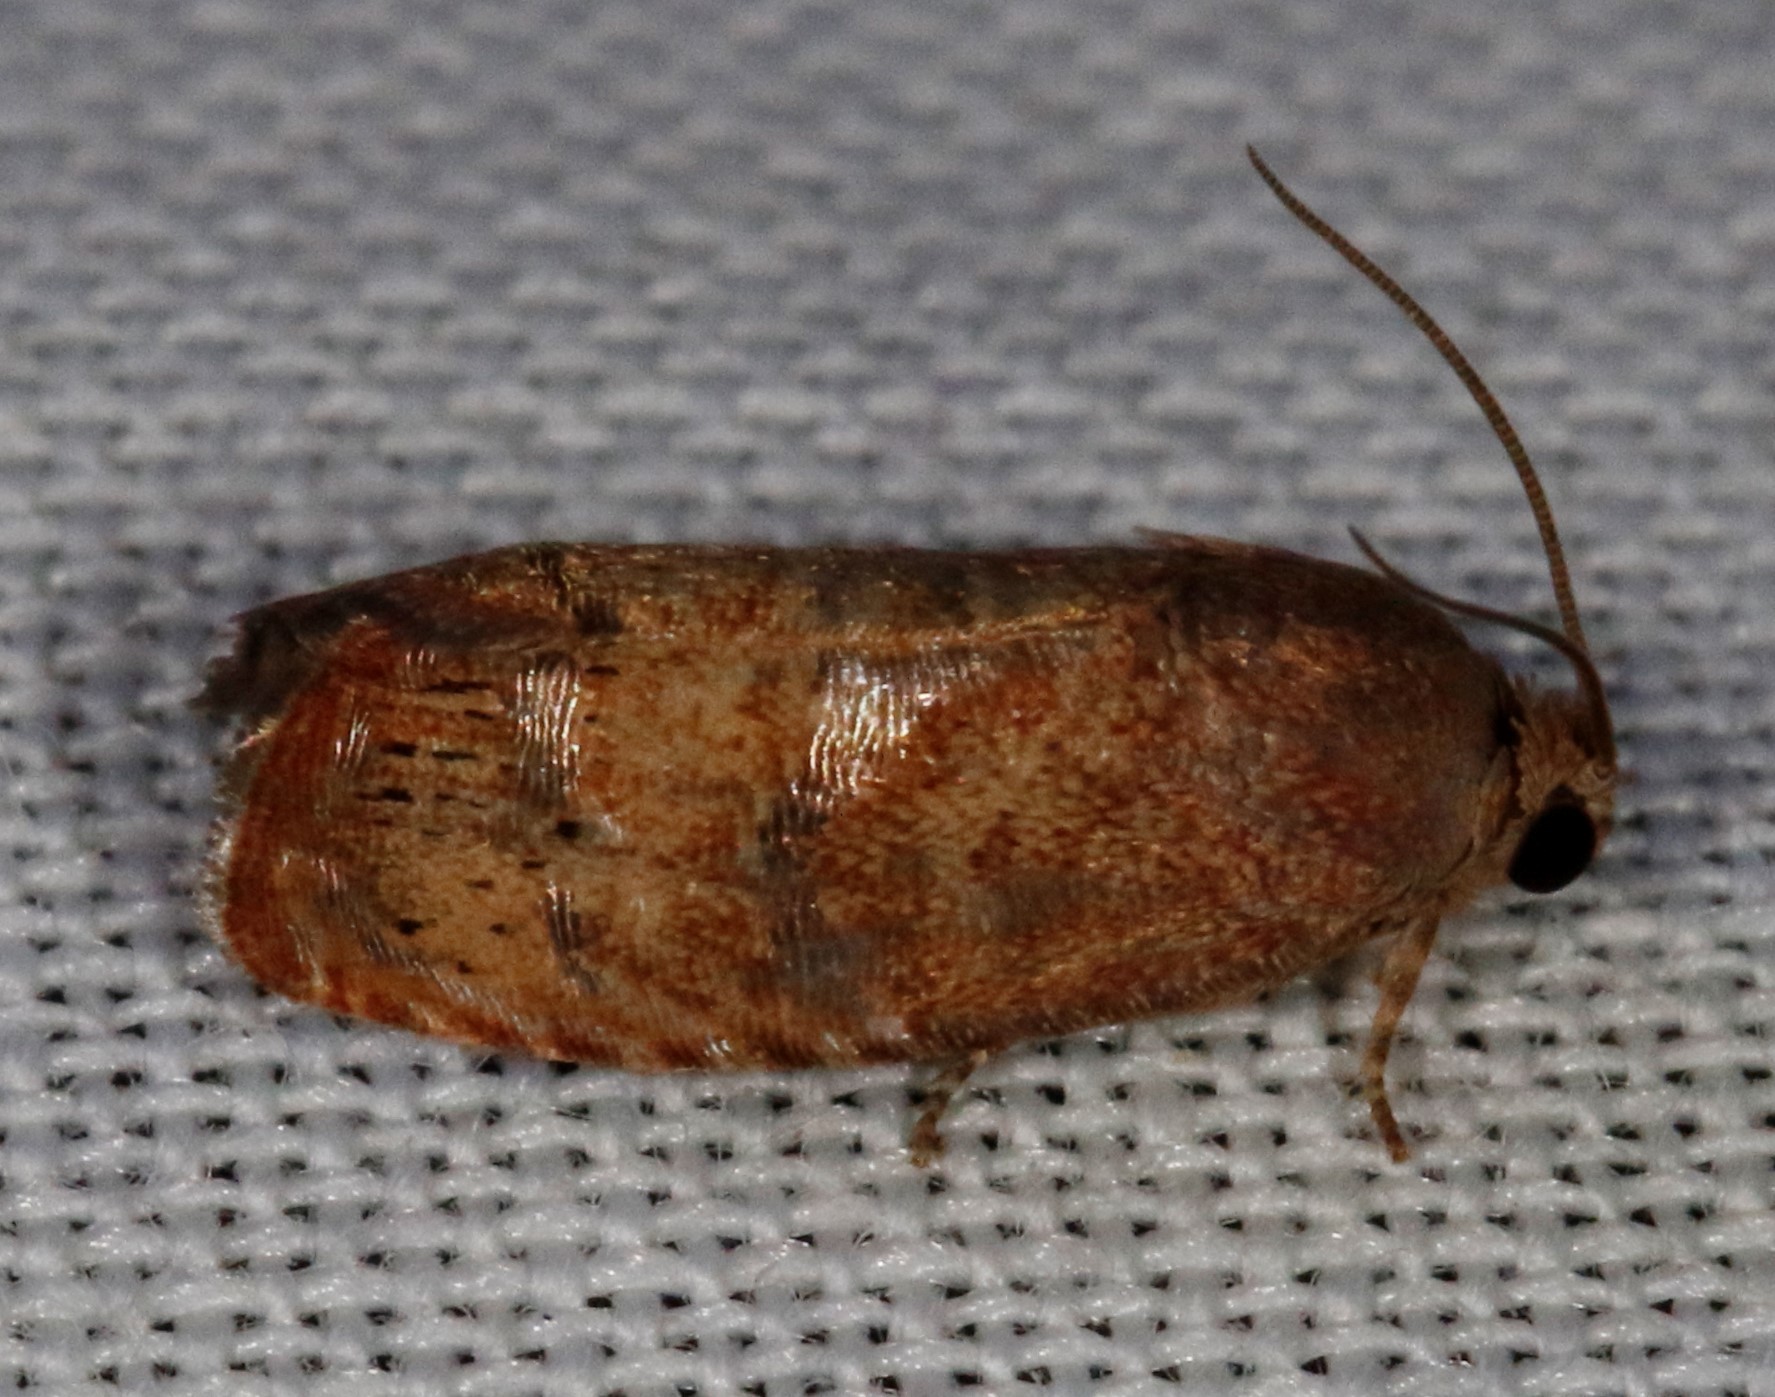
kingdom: Animalia
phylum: Arthropoda
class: Insecta
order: Lepidoptera
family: Tortricidae
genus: Cydia
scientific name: Cydia latiferreana
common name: Filbertworm moth
